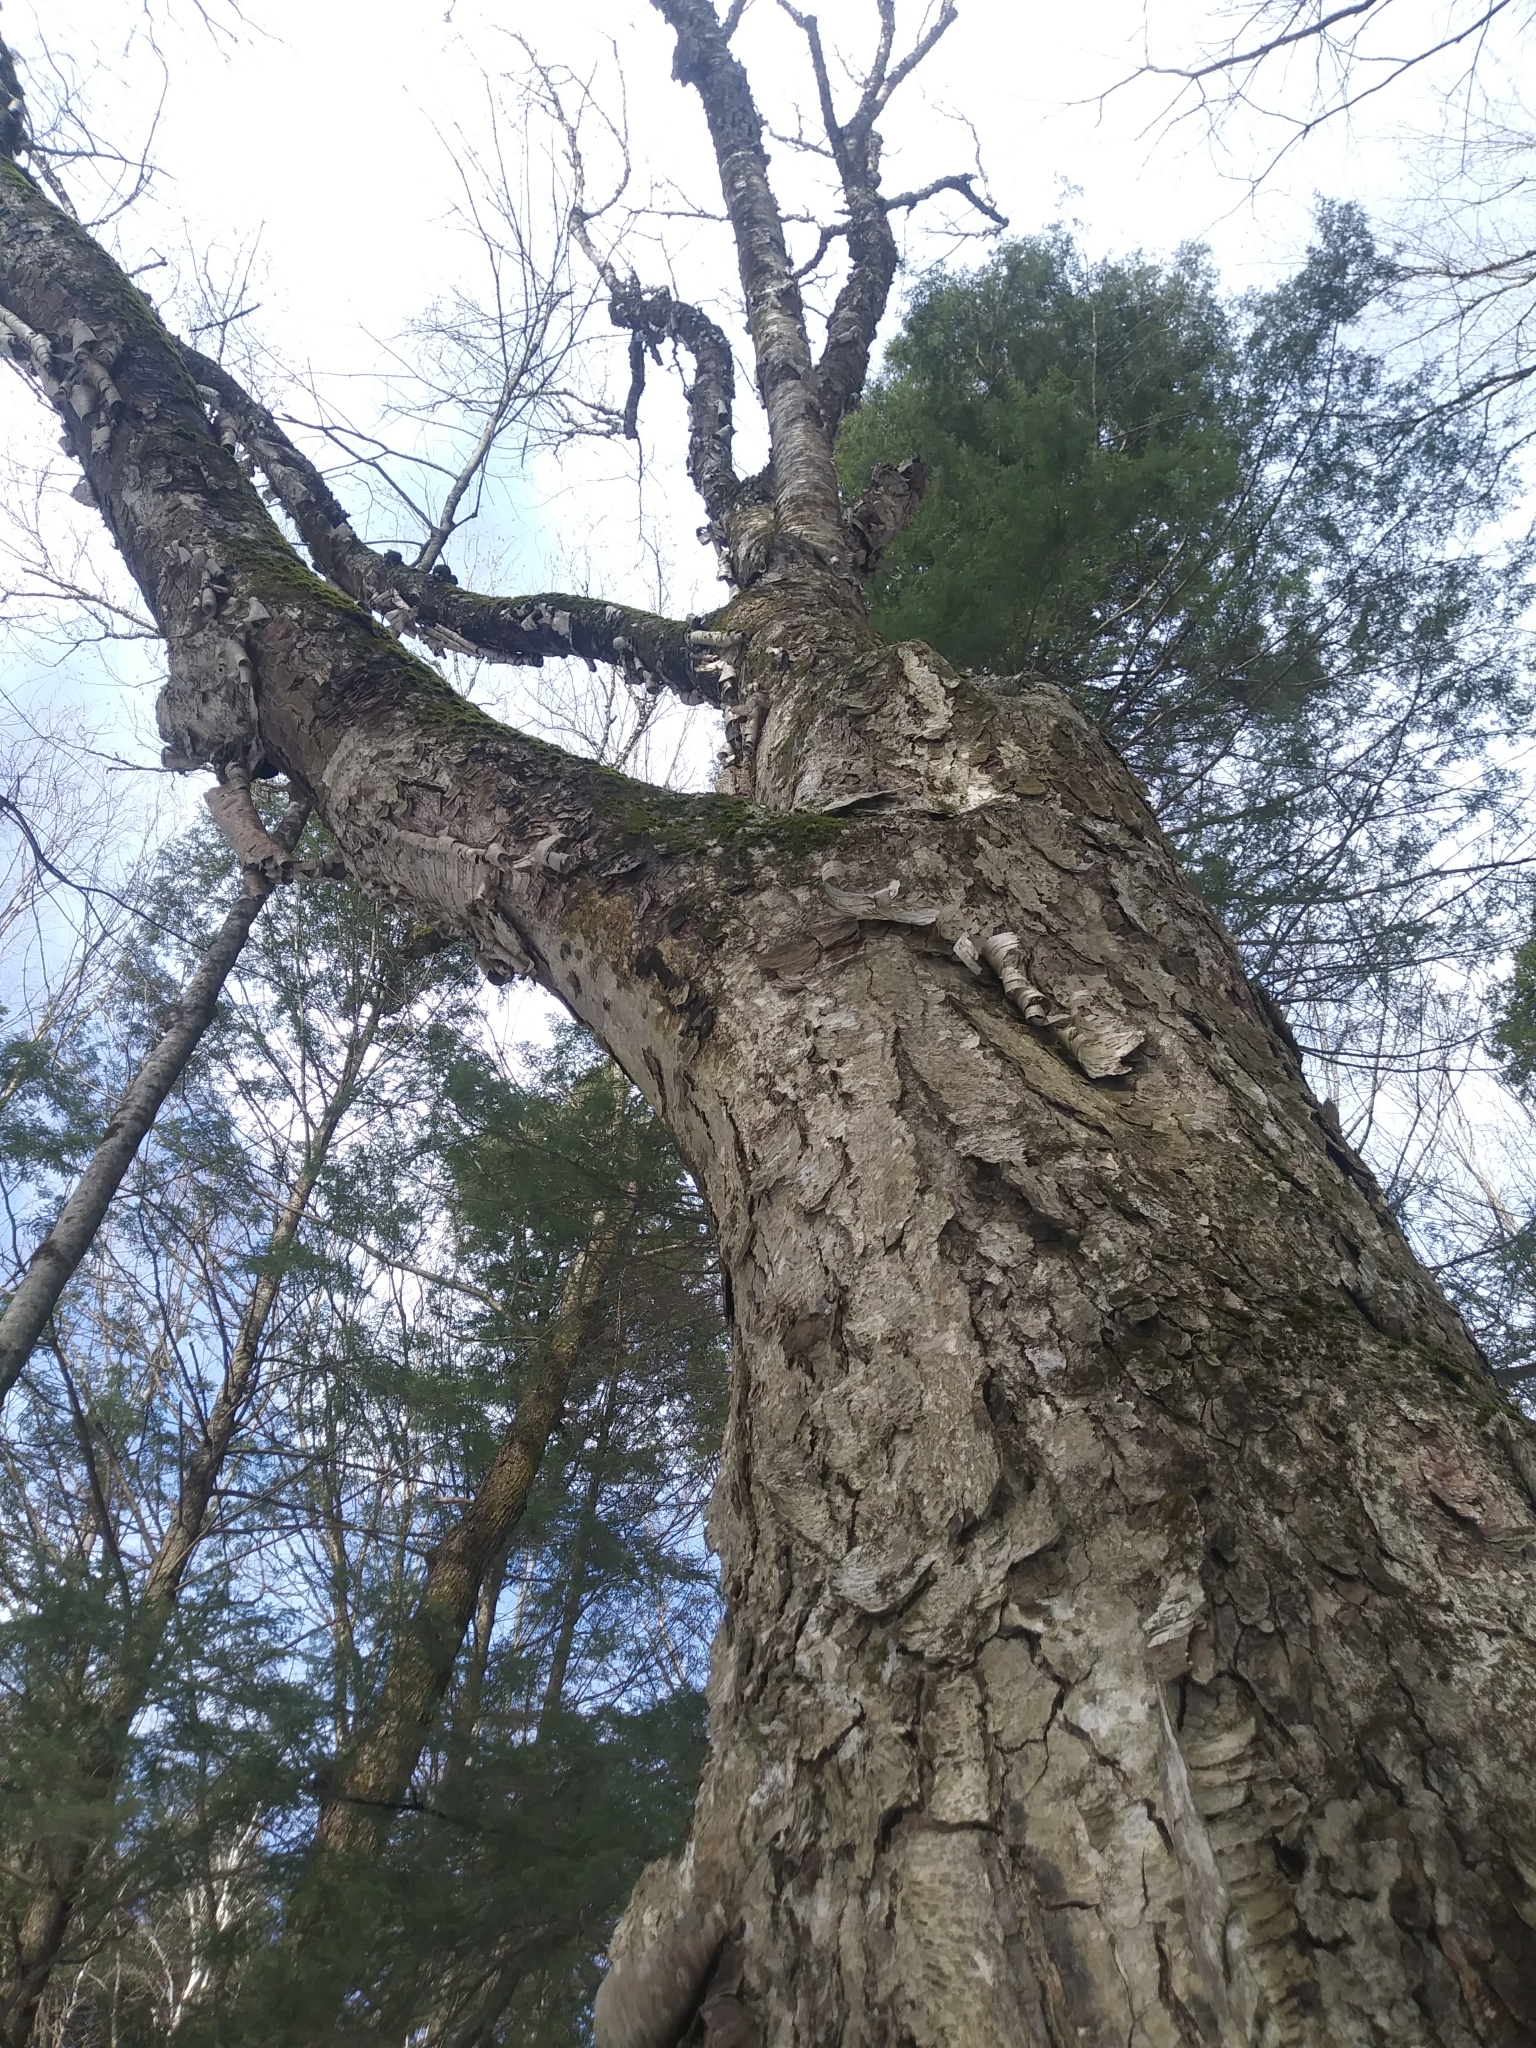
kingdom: Plantae
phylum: Tracheophyta
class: Magnoliopsida
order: Fagales
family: Betulaceae
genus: Betula
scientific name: Betula alleghaniensis
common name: Yellow birch
